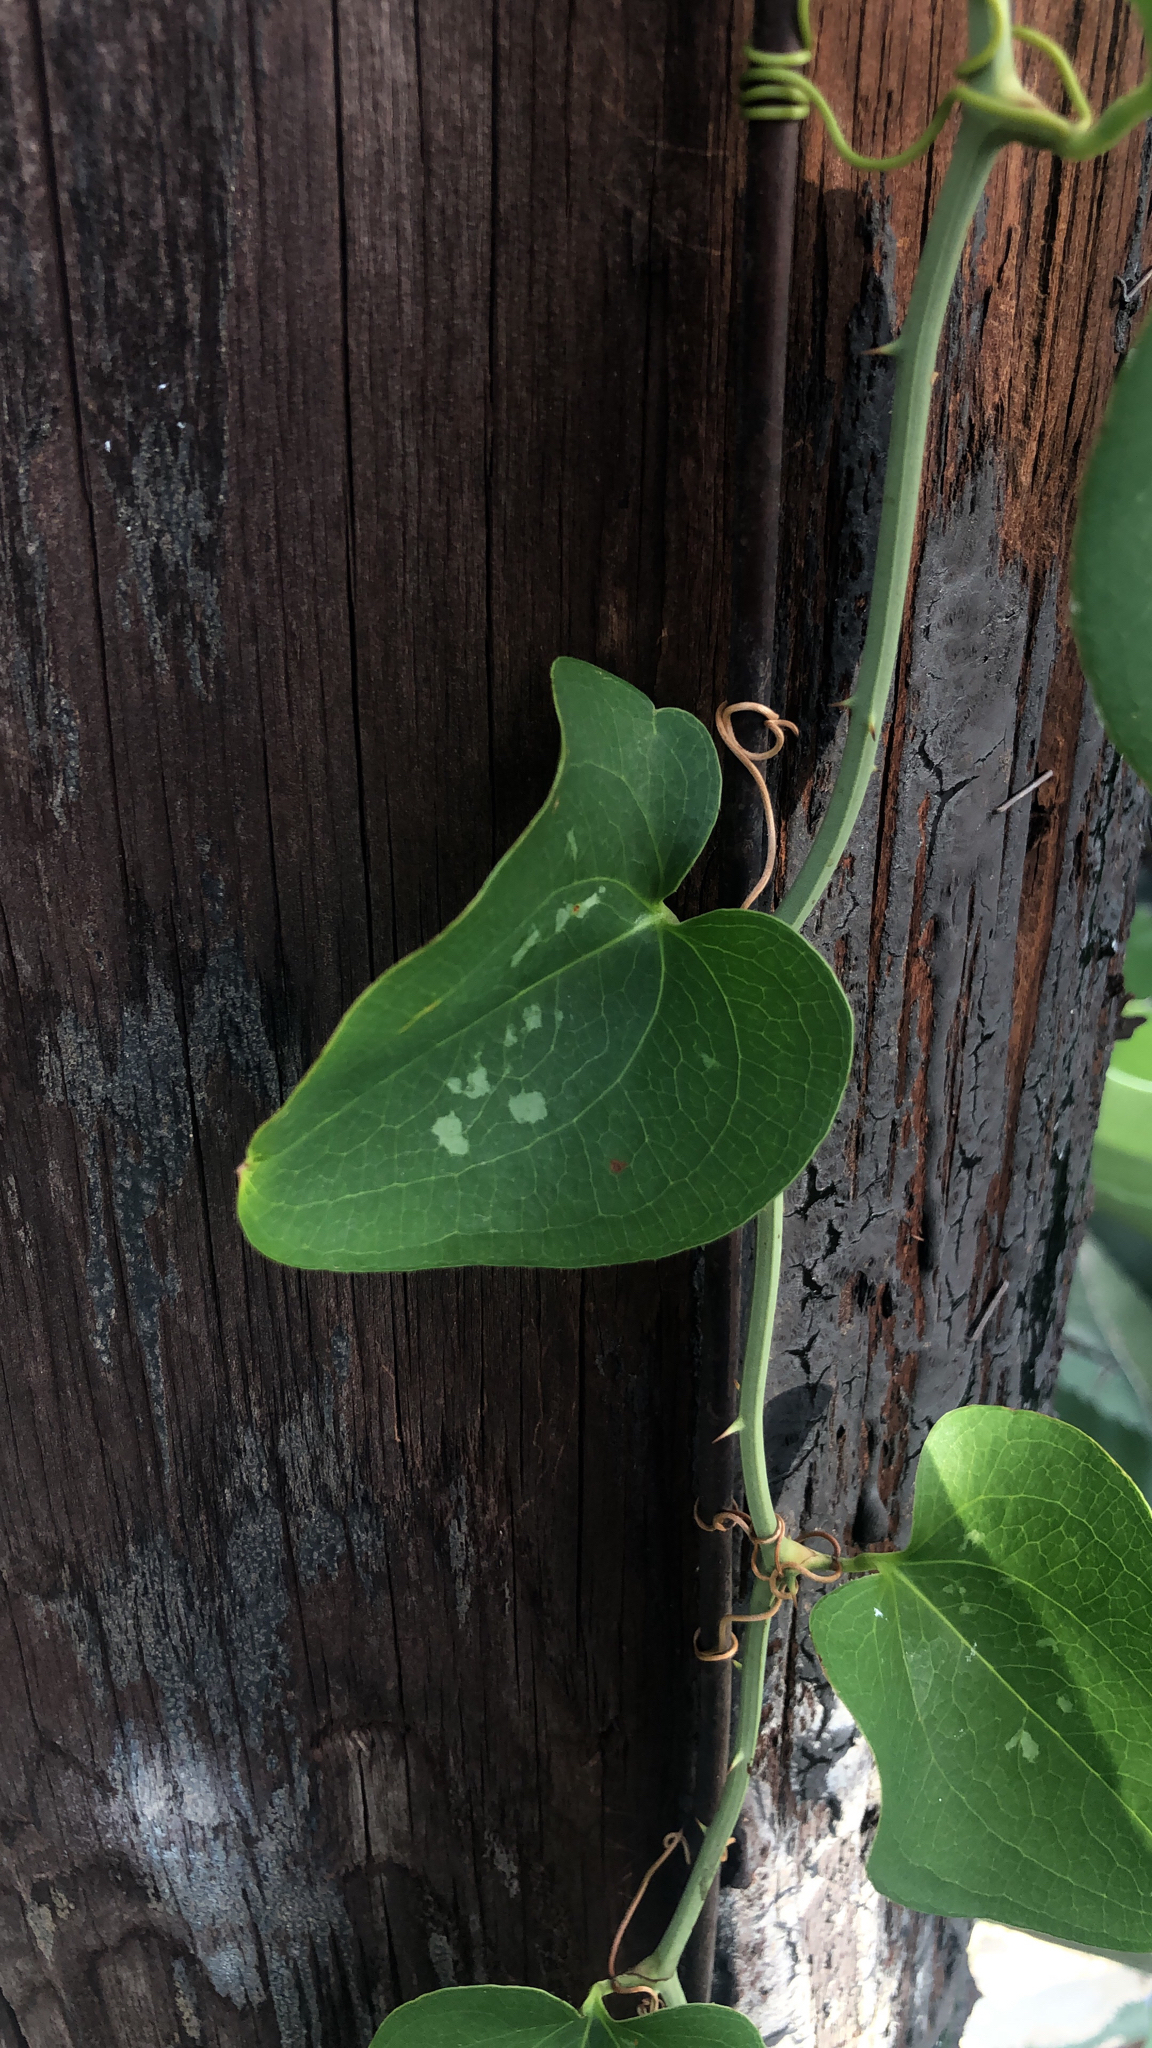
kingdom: Plantae
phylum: Tracheophyta
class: Liliopsida
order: Liliales
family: Smilacaceae
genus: Smilax
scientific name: Smilax bona-nox
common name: Catbrier
